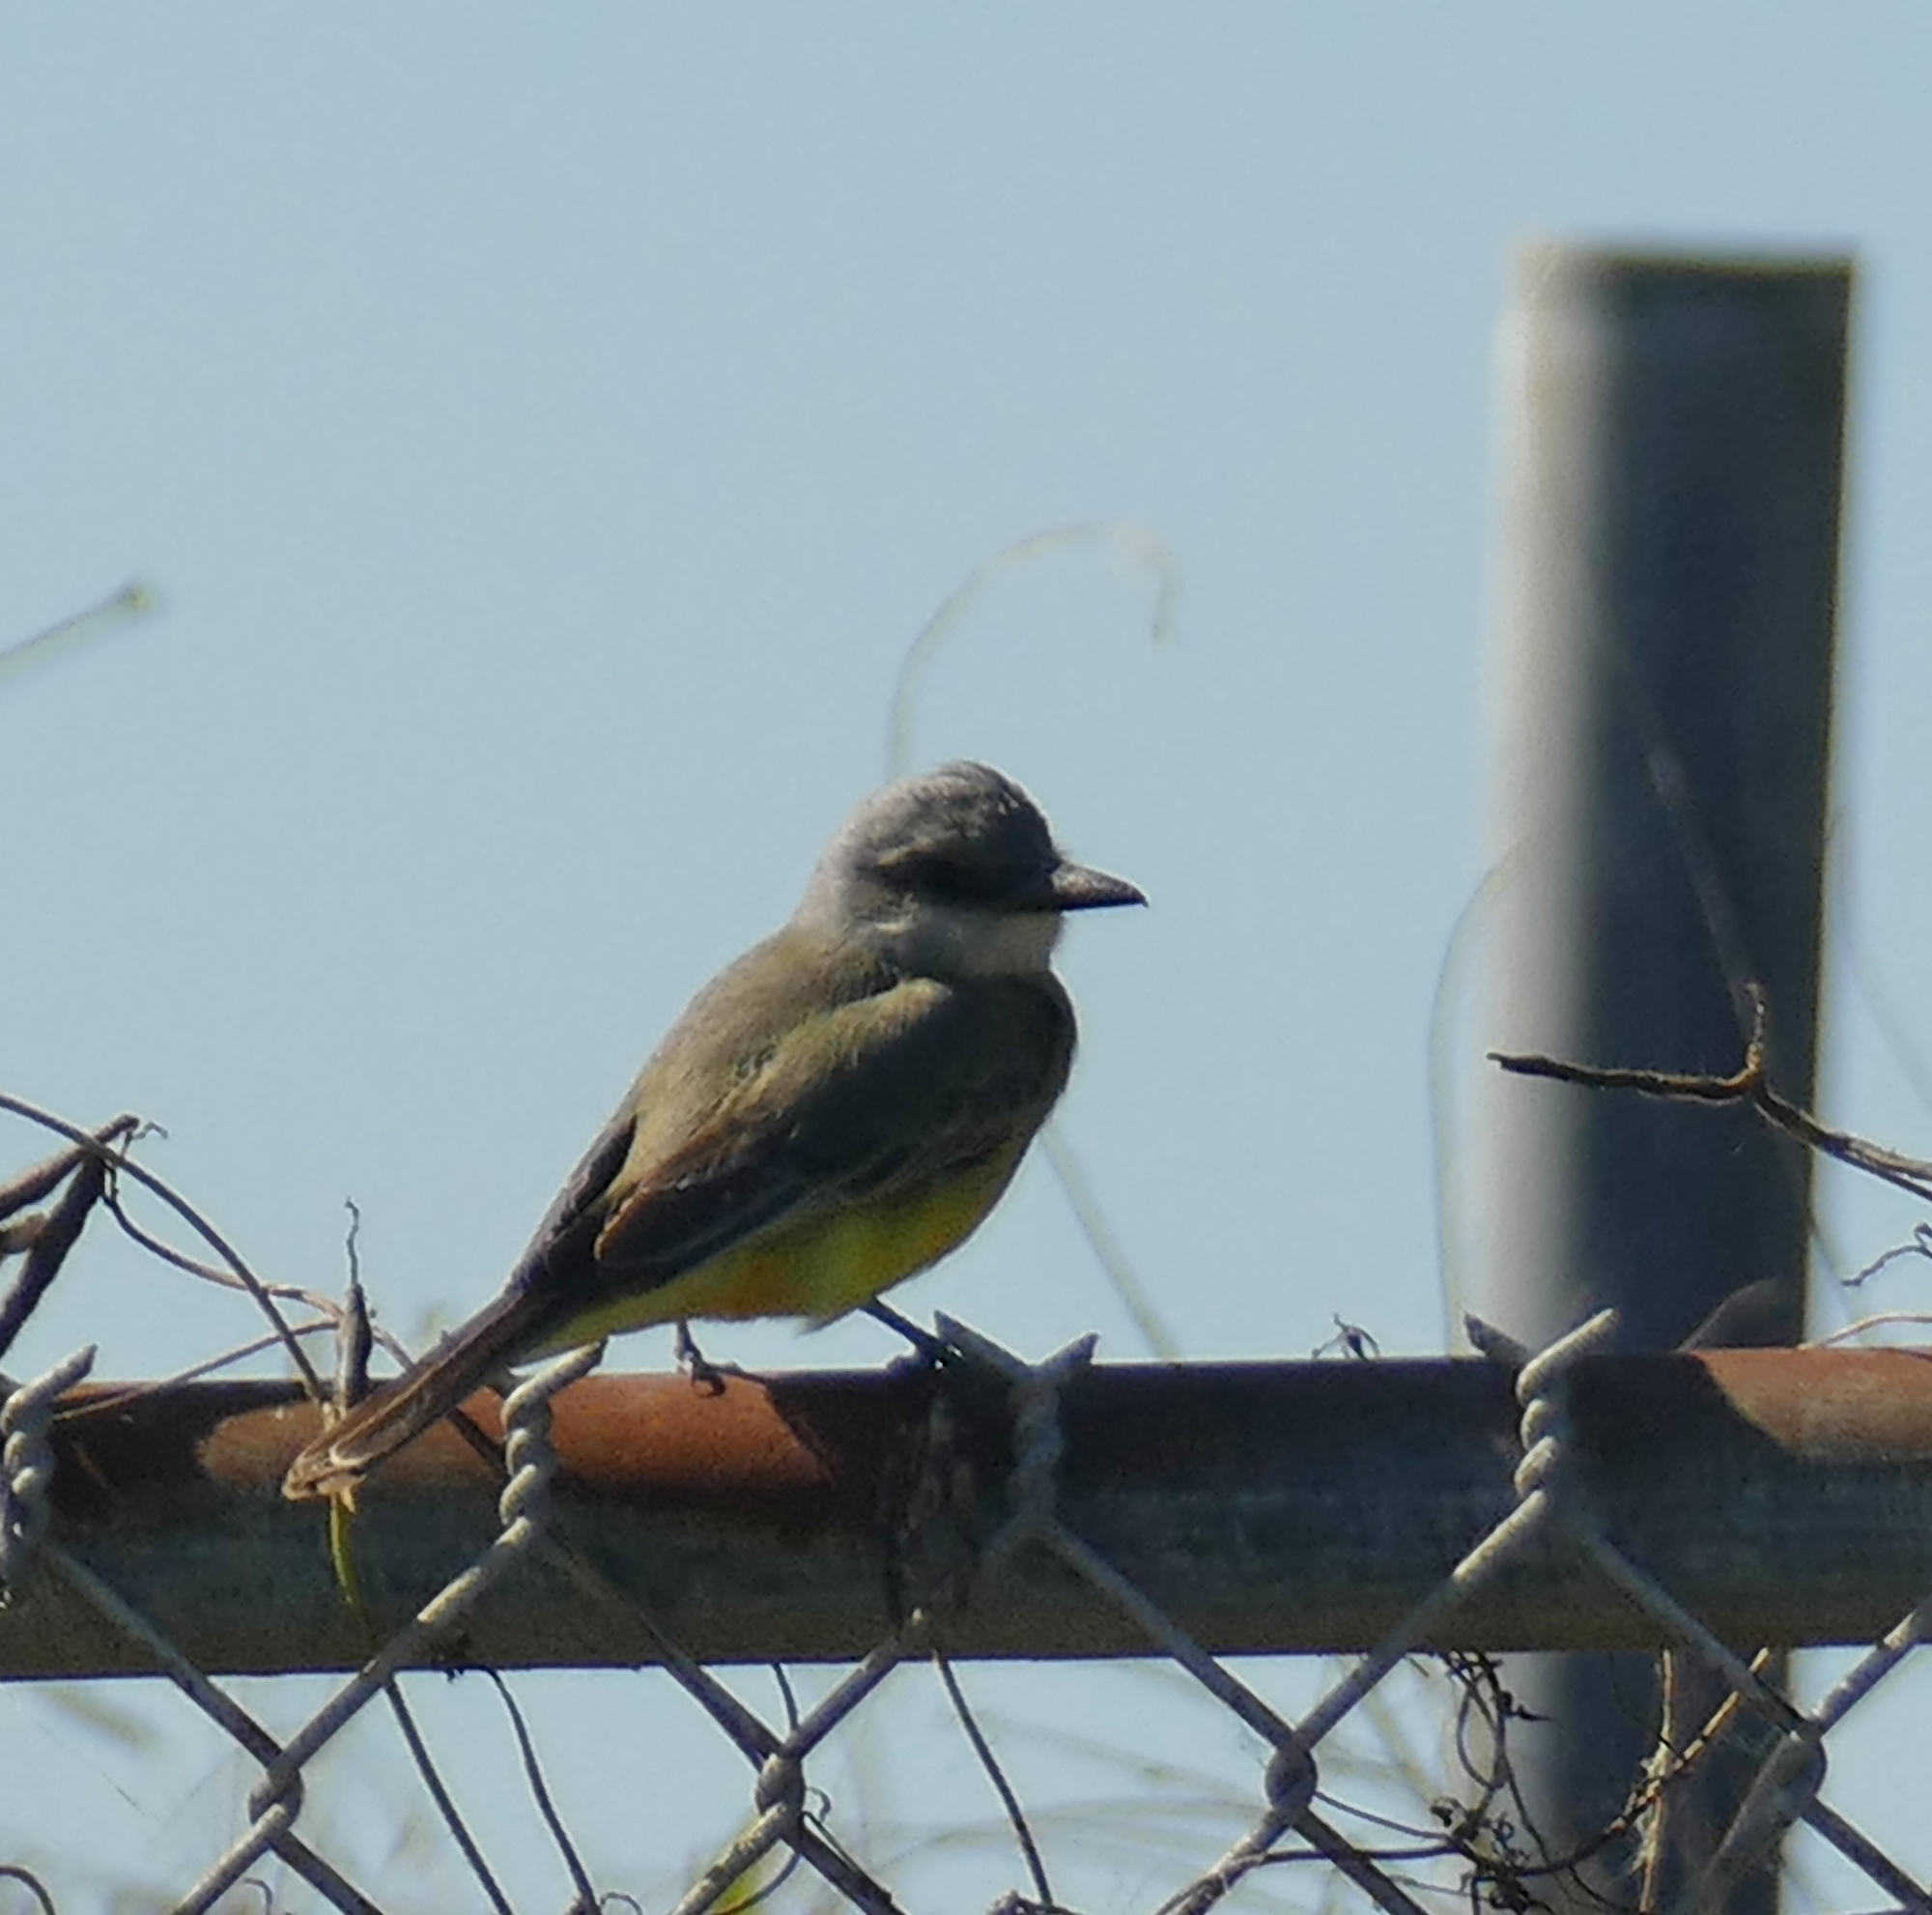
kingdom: Animalia
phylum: Chordata
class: Aves
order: Passeriformes
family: Tyrannidae
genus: Tyrannus
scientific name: Tyrannus couchii
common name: Couch's kingbird
